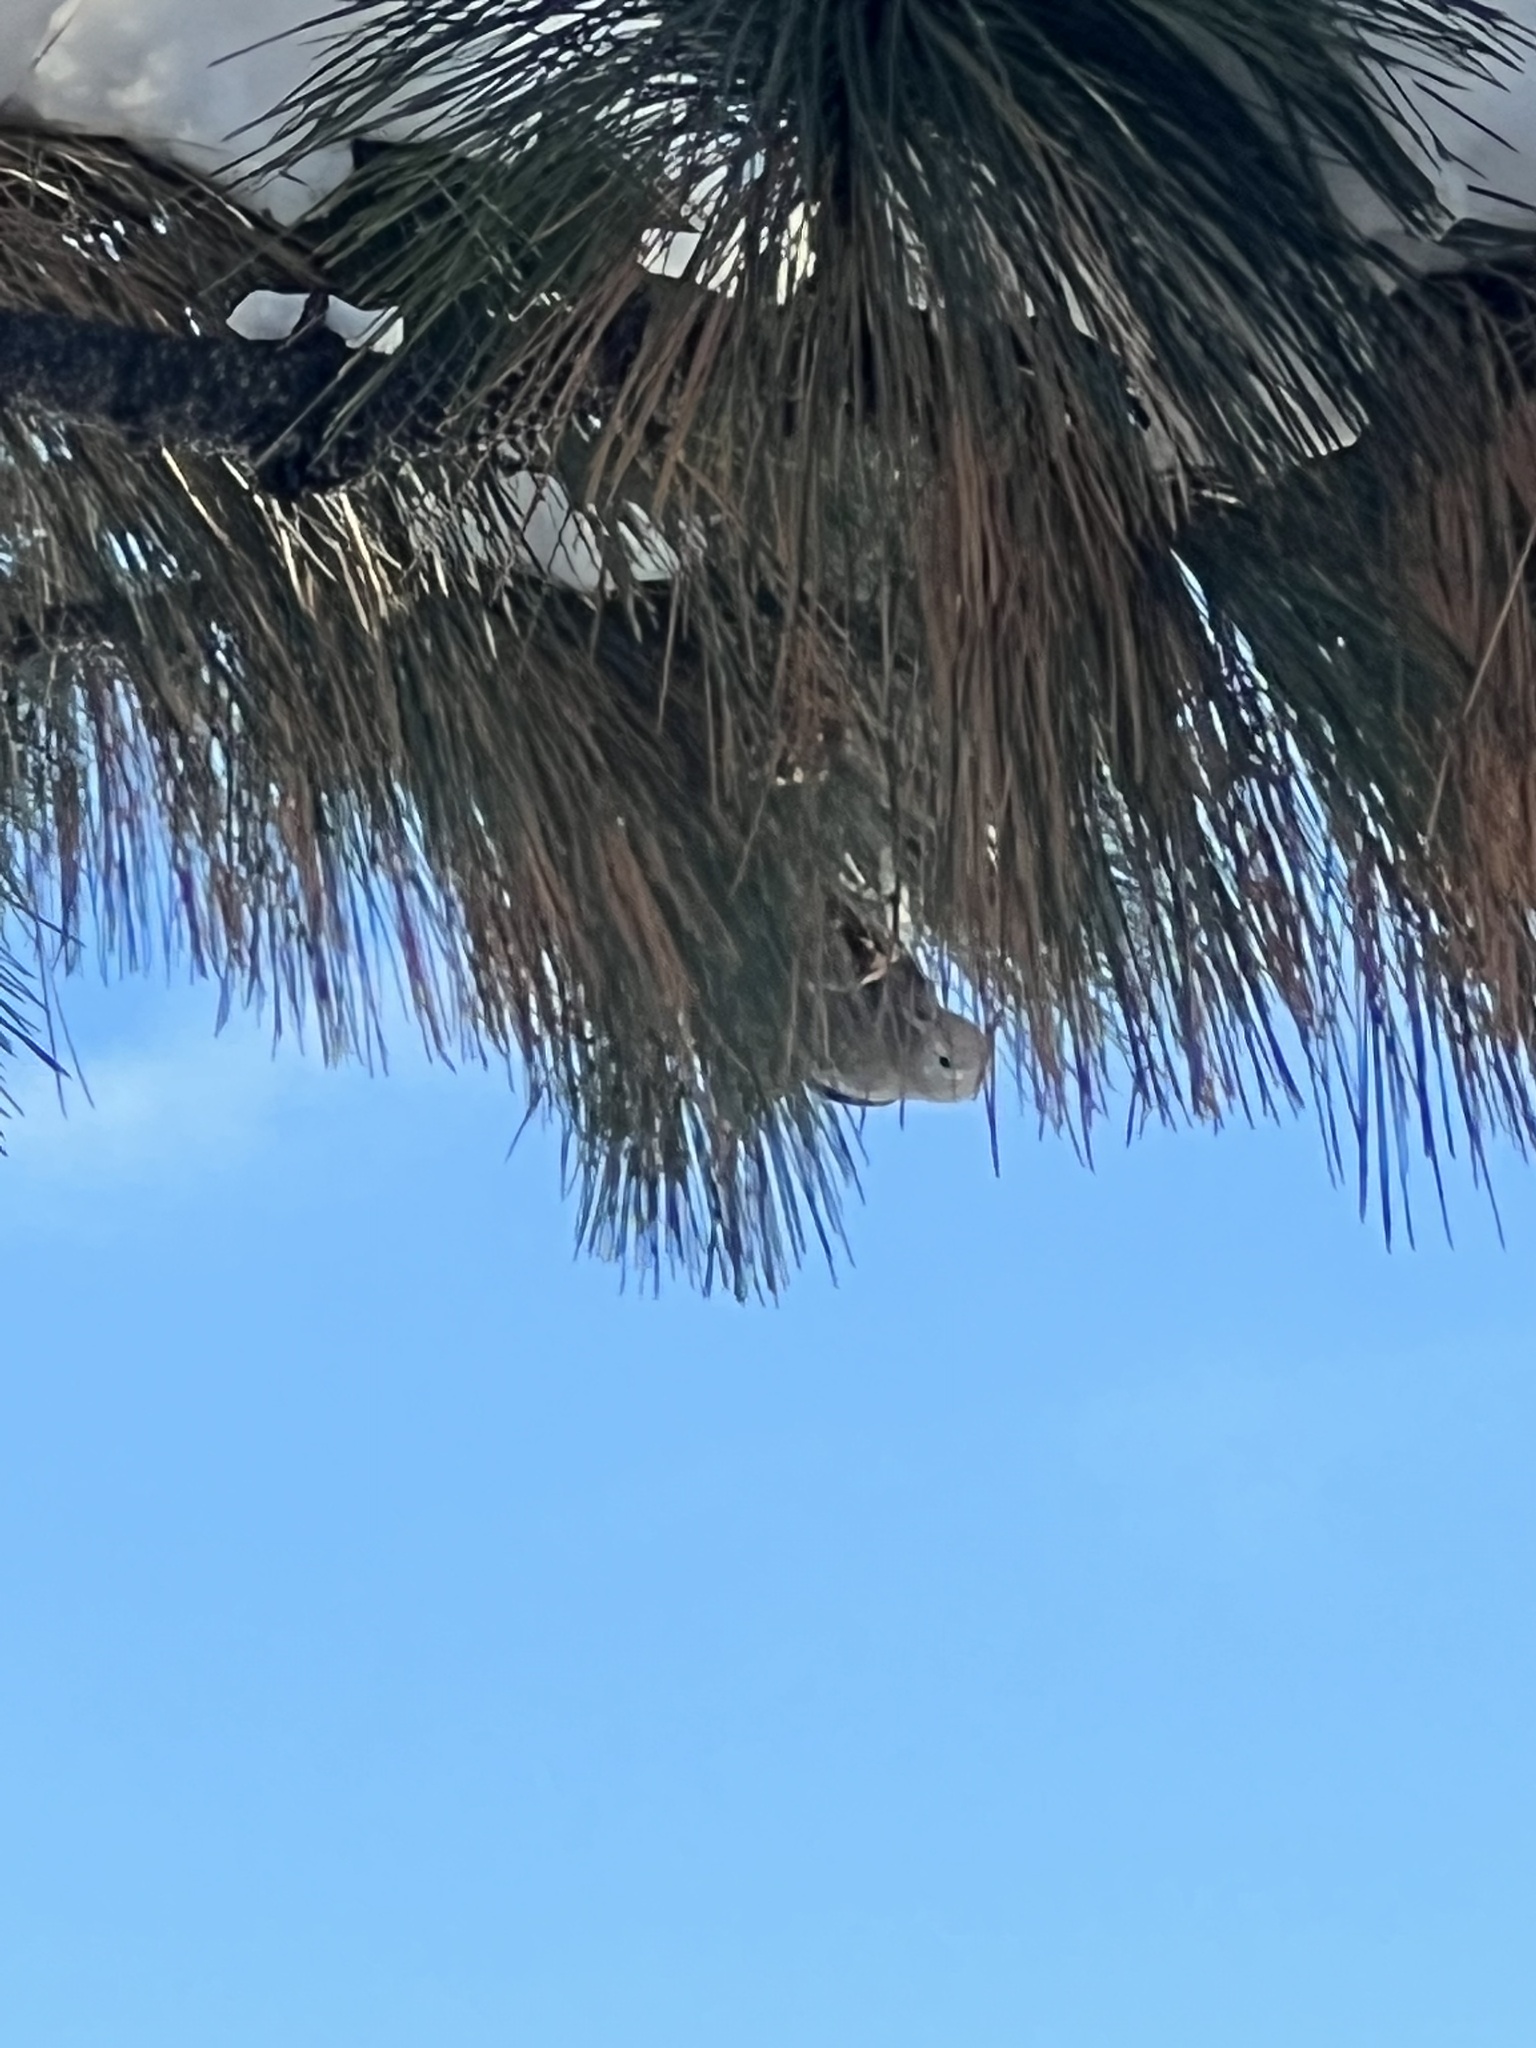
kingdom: Animalia
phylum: Chordata
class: Aves
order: Passeriformes
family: Corvidae
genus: Nucifraga
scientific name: Nucifraga columbiana
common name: Clark's nutcracker
